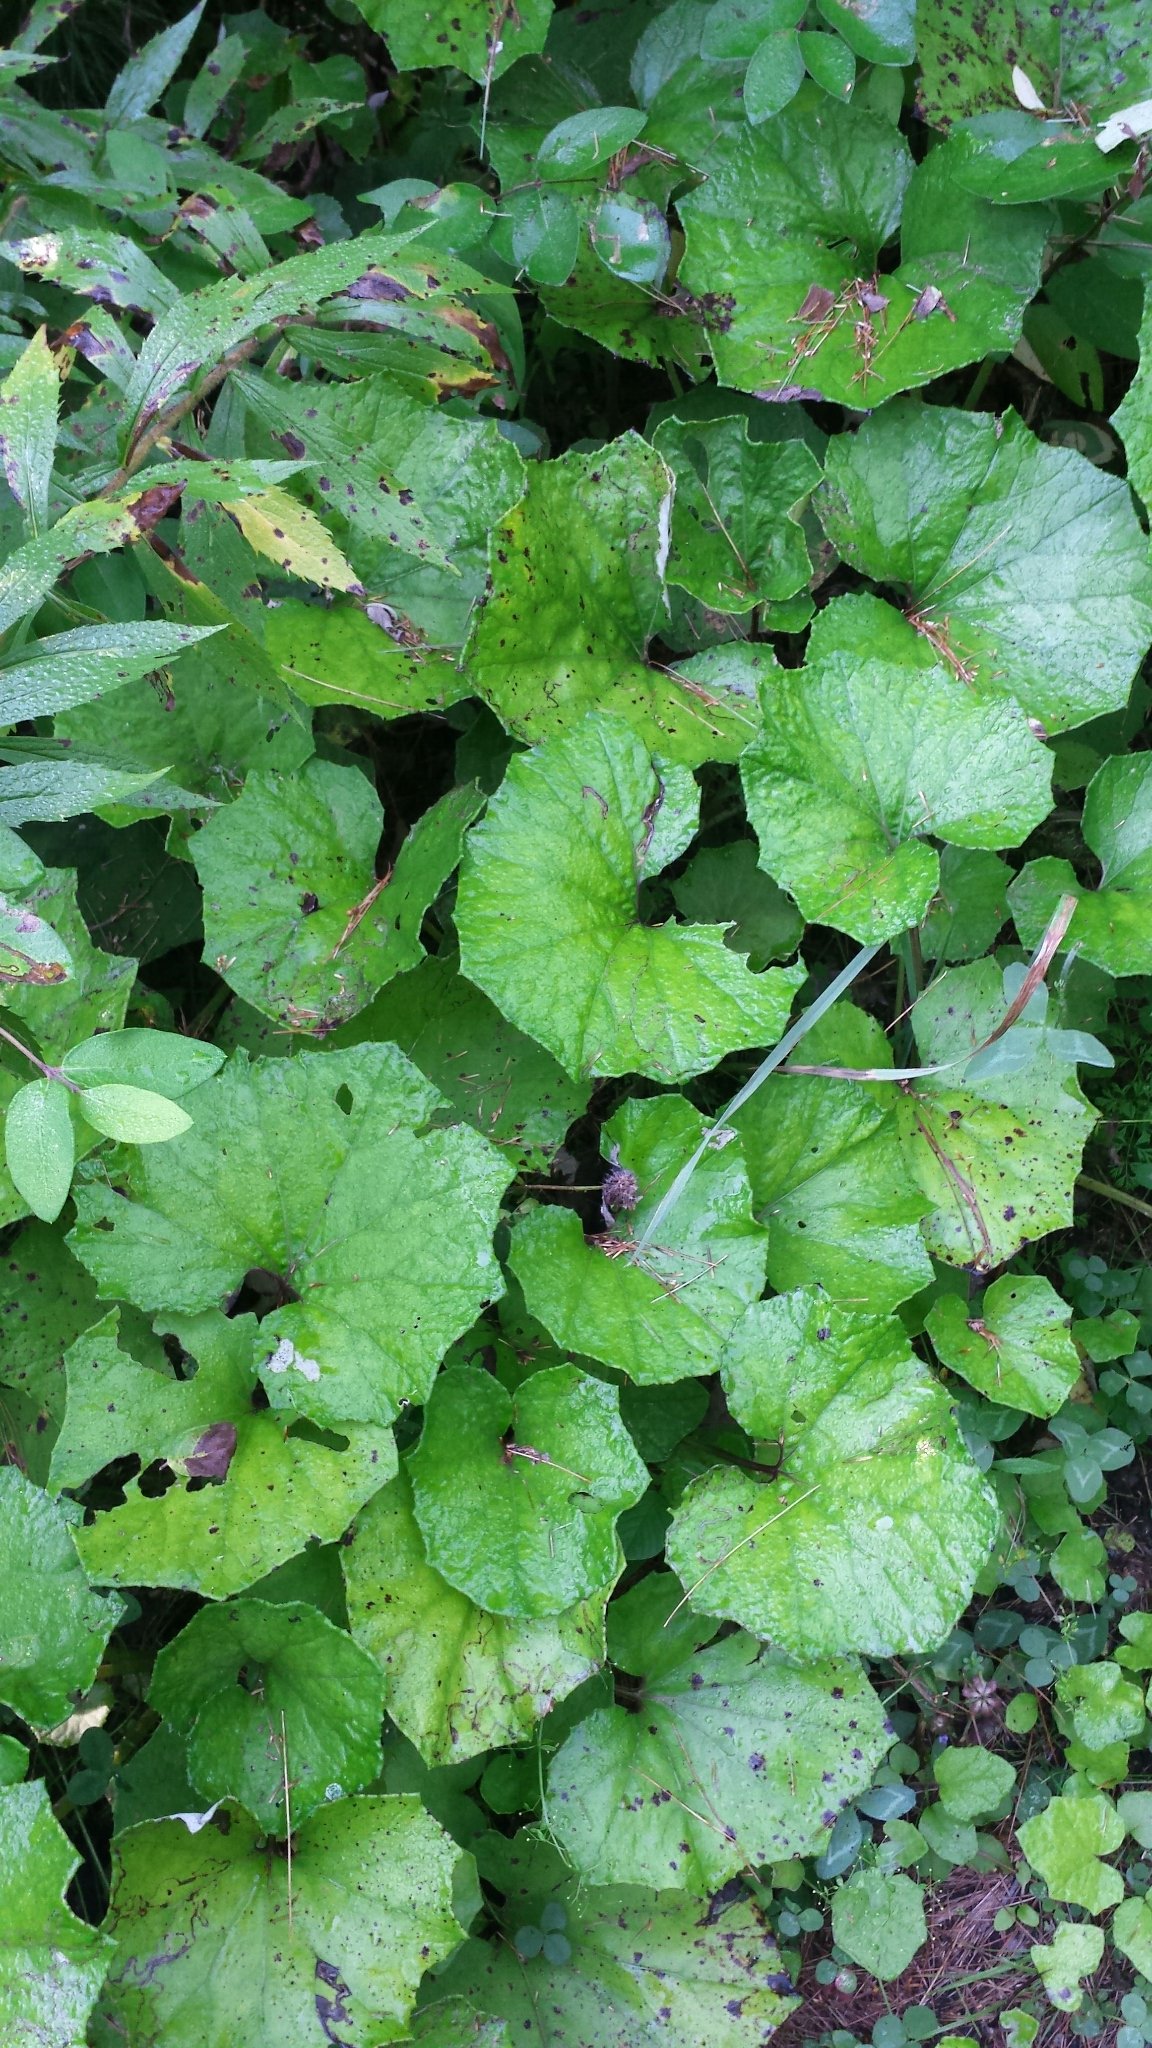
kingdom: Plantae
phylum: Tracheophyta
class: Magnoliopsida
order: Asterales
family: Asteraceae
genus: Tussilago
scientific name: Tussilago farfara
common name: Coltsfoot
